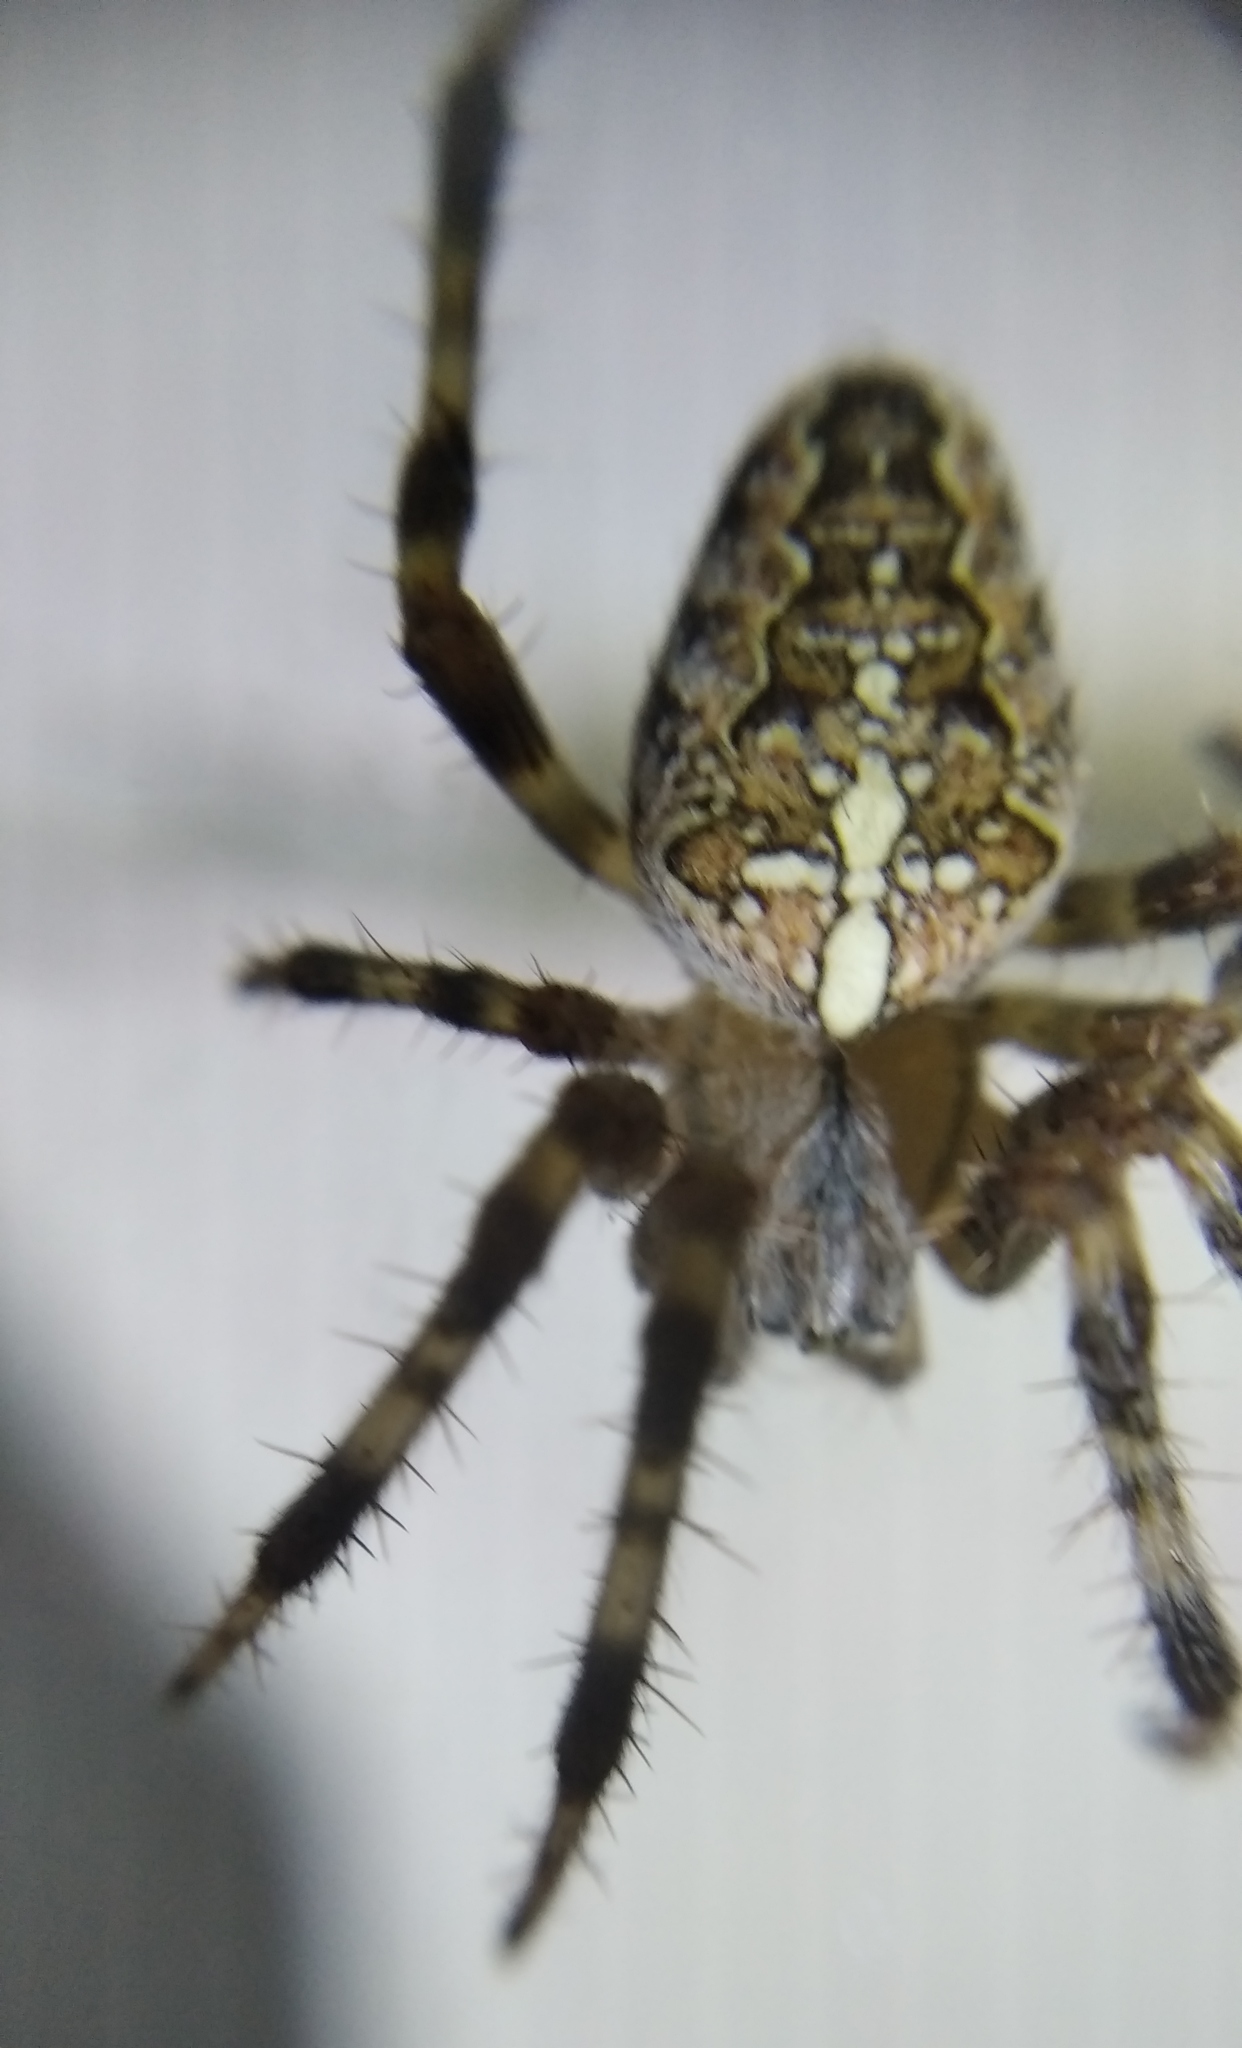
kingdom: Animalia
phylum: Arthropoda
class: Arachnida
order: Araneae
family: Araneidae
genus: Araneus
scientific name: Araneus diadematus
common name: Cross orbweaver
